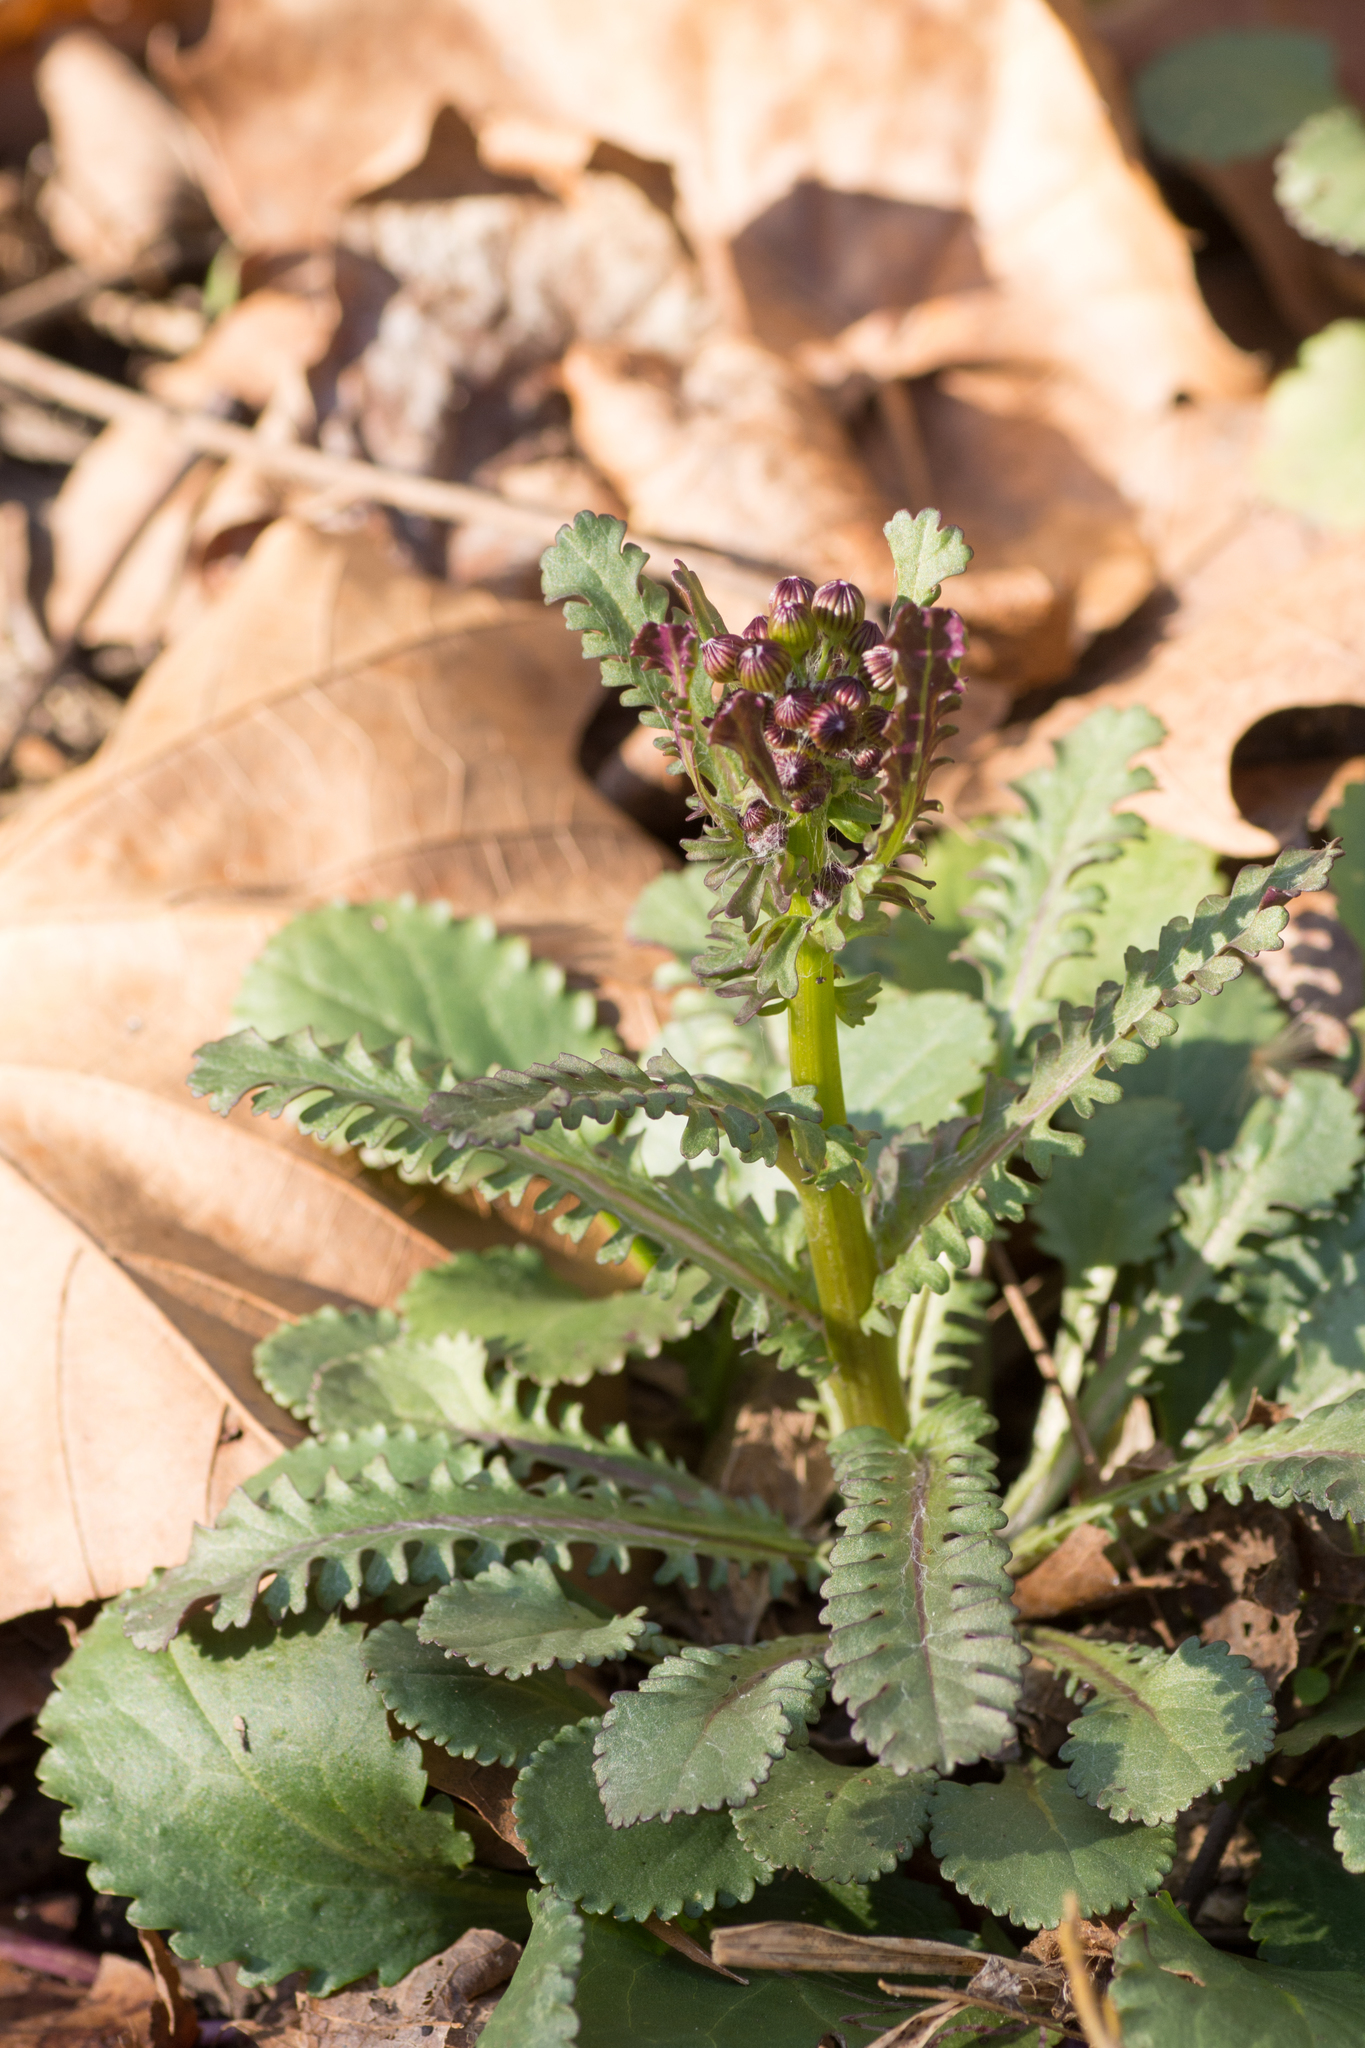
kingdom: Plantae
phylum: Tracheophyta
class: Magnoliopsida
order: Asterales
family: Asteraceae
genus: Packera
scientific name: Packera aurea
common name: Golden groundsel
